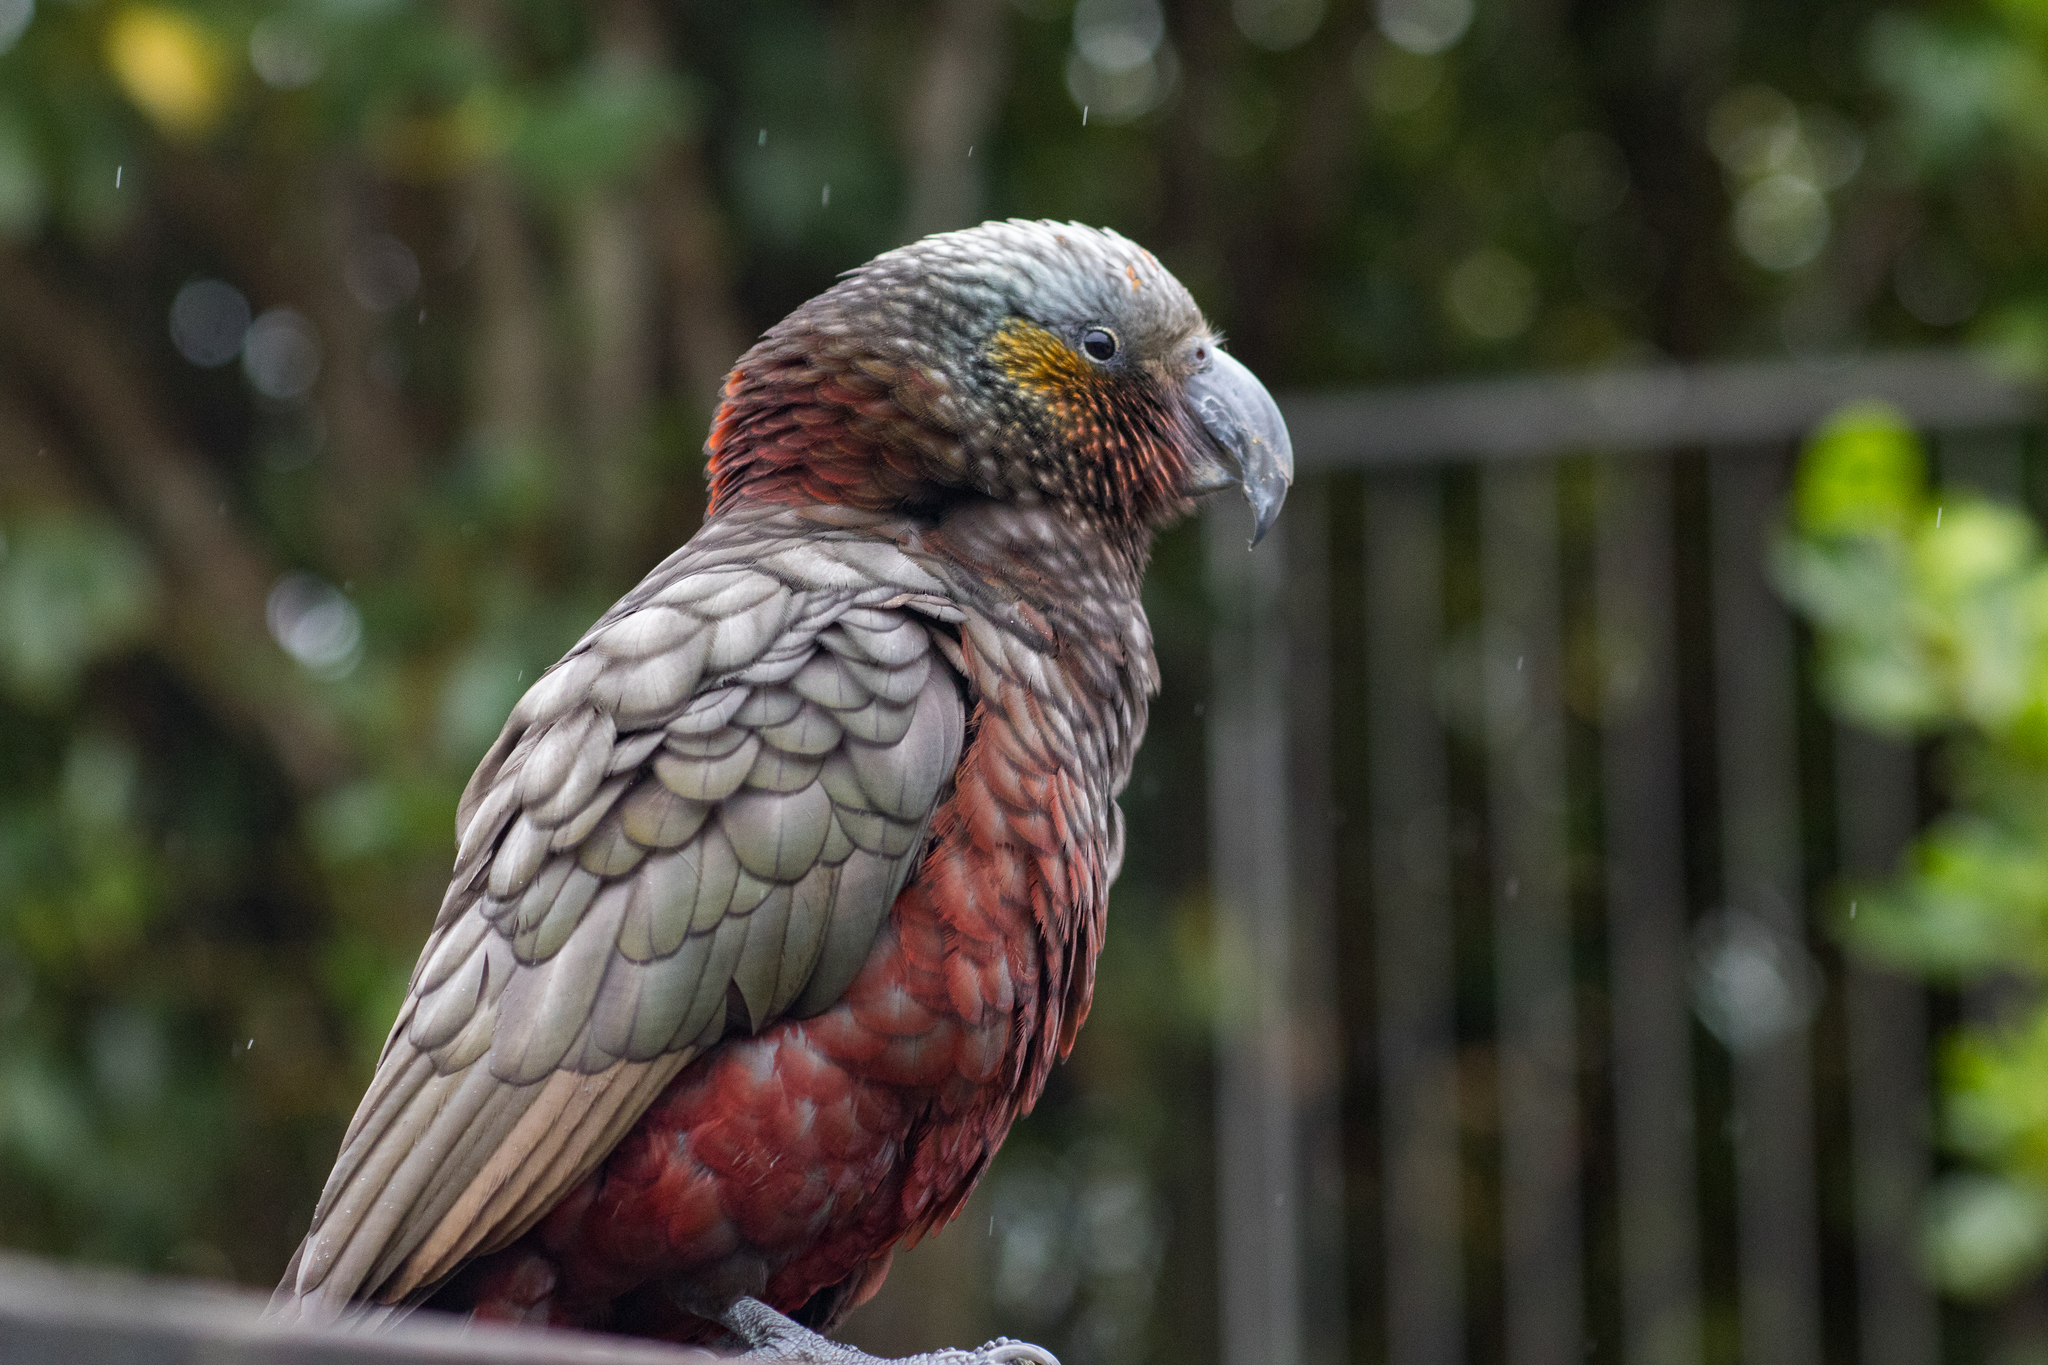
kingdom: Animalia
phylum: Chordata
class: Aves
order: Psittaciformes
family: Psittacidae
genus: Nestor
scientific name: Nestor meridionalis
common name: New zealand kaka
